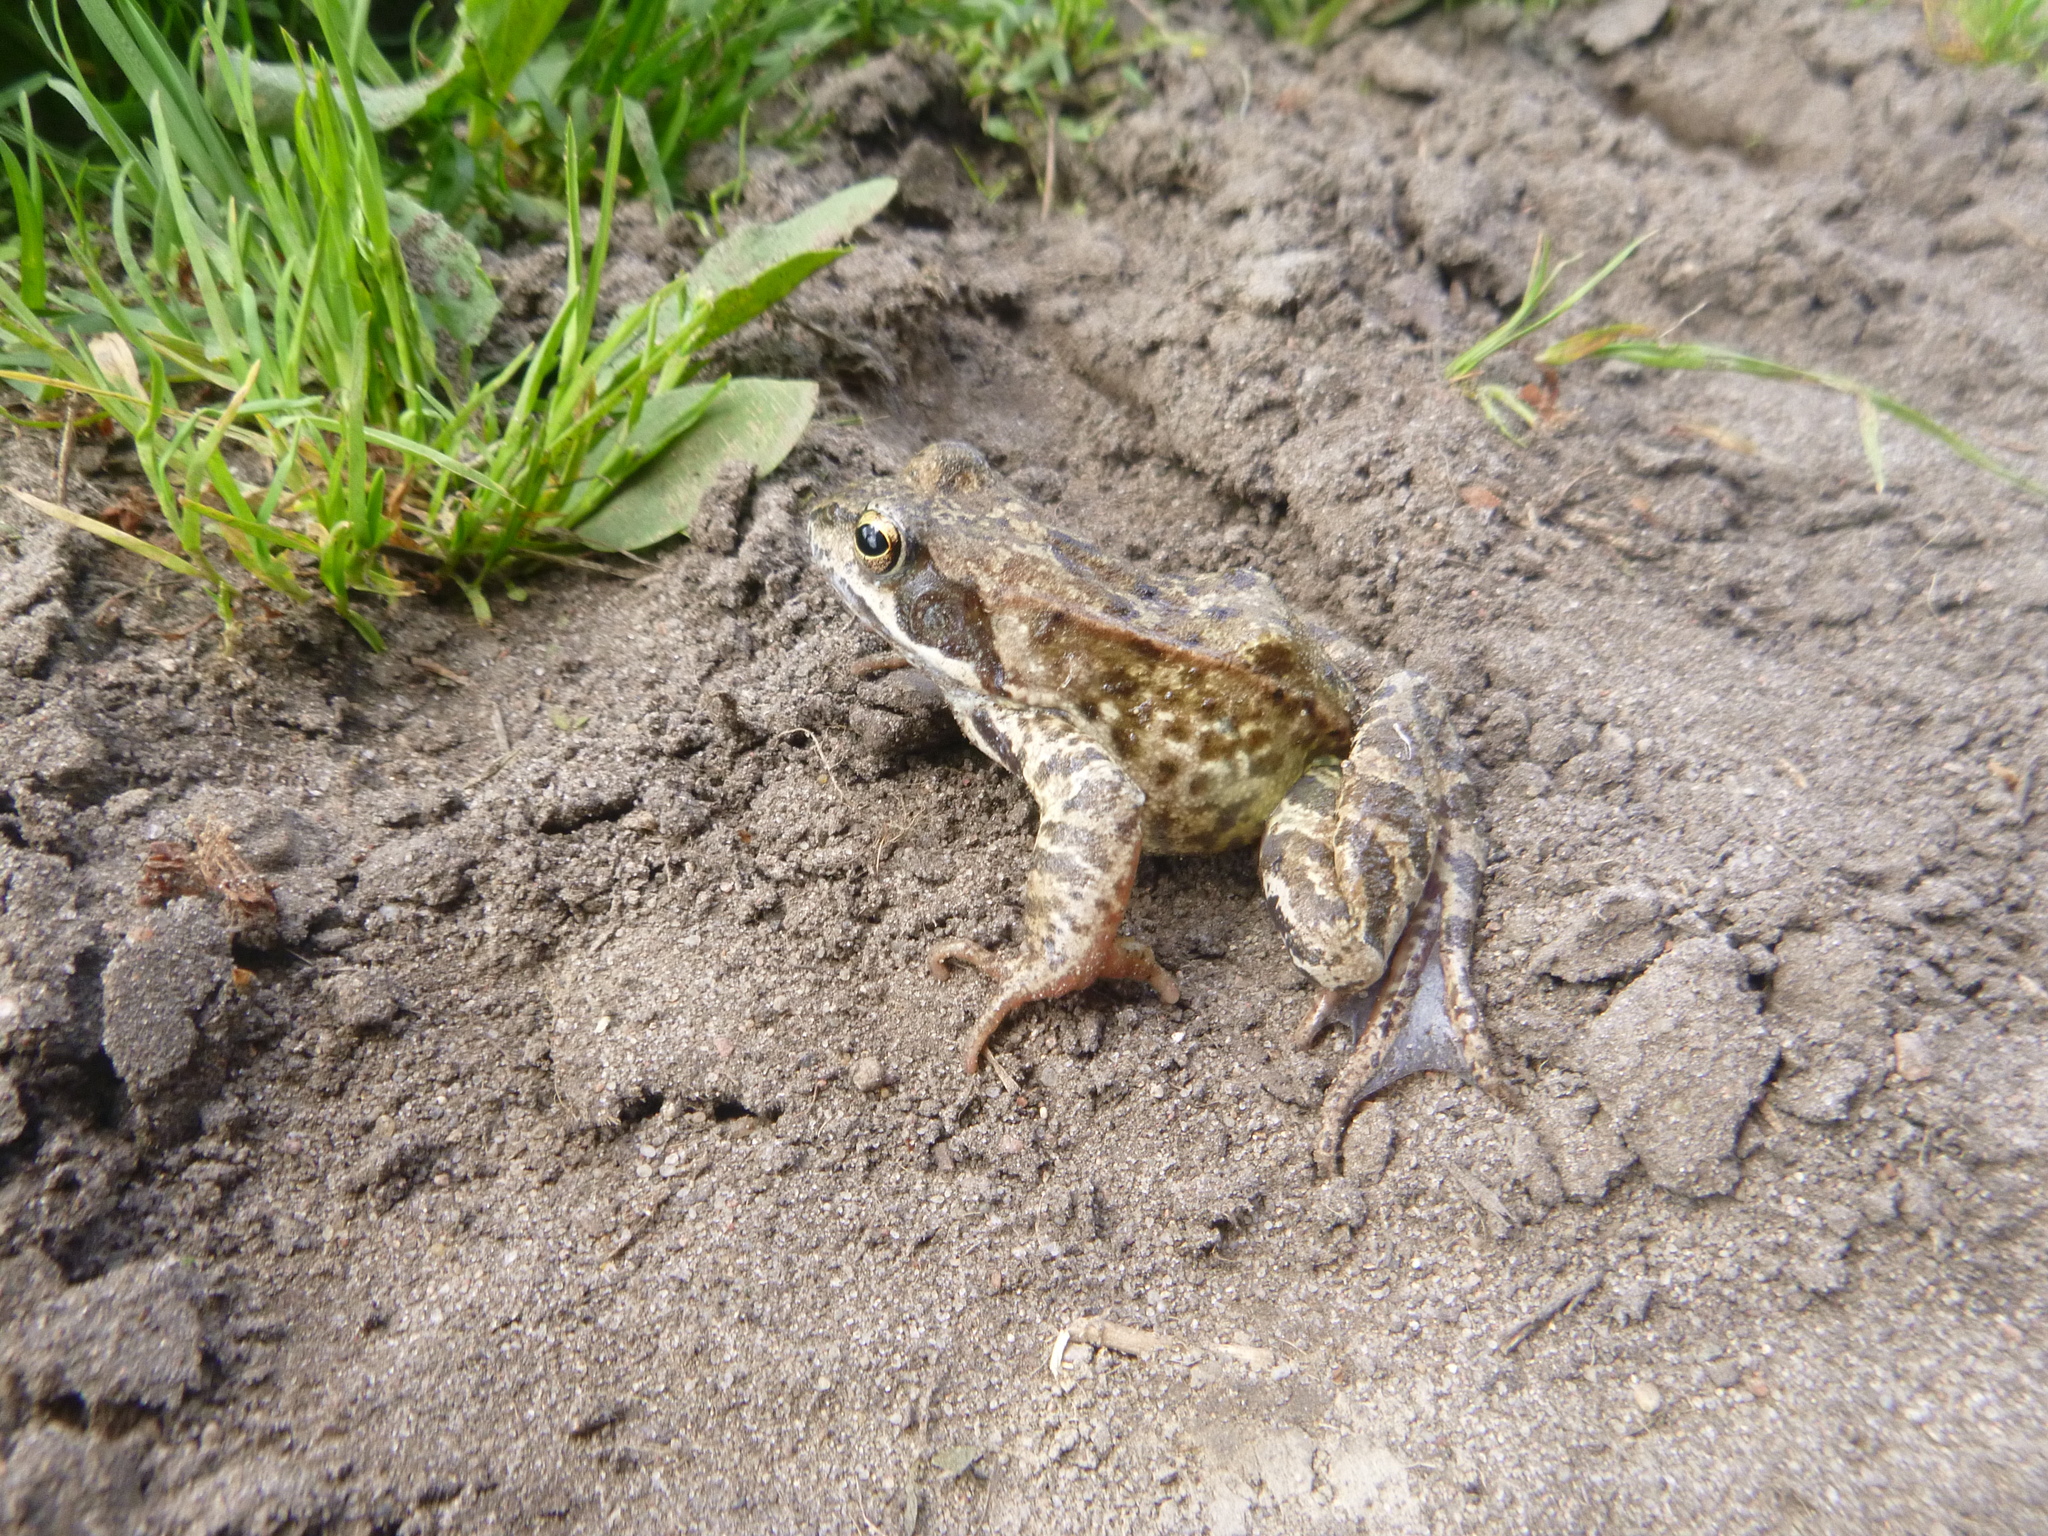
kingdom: Animalia
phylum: Chordata
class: Amphibia
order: Anura
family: Ranidae
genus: Rana
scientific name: Rana temporaria
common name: Common frog
